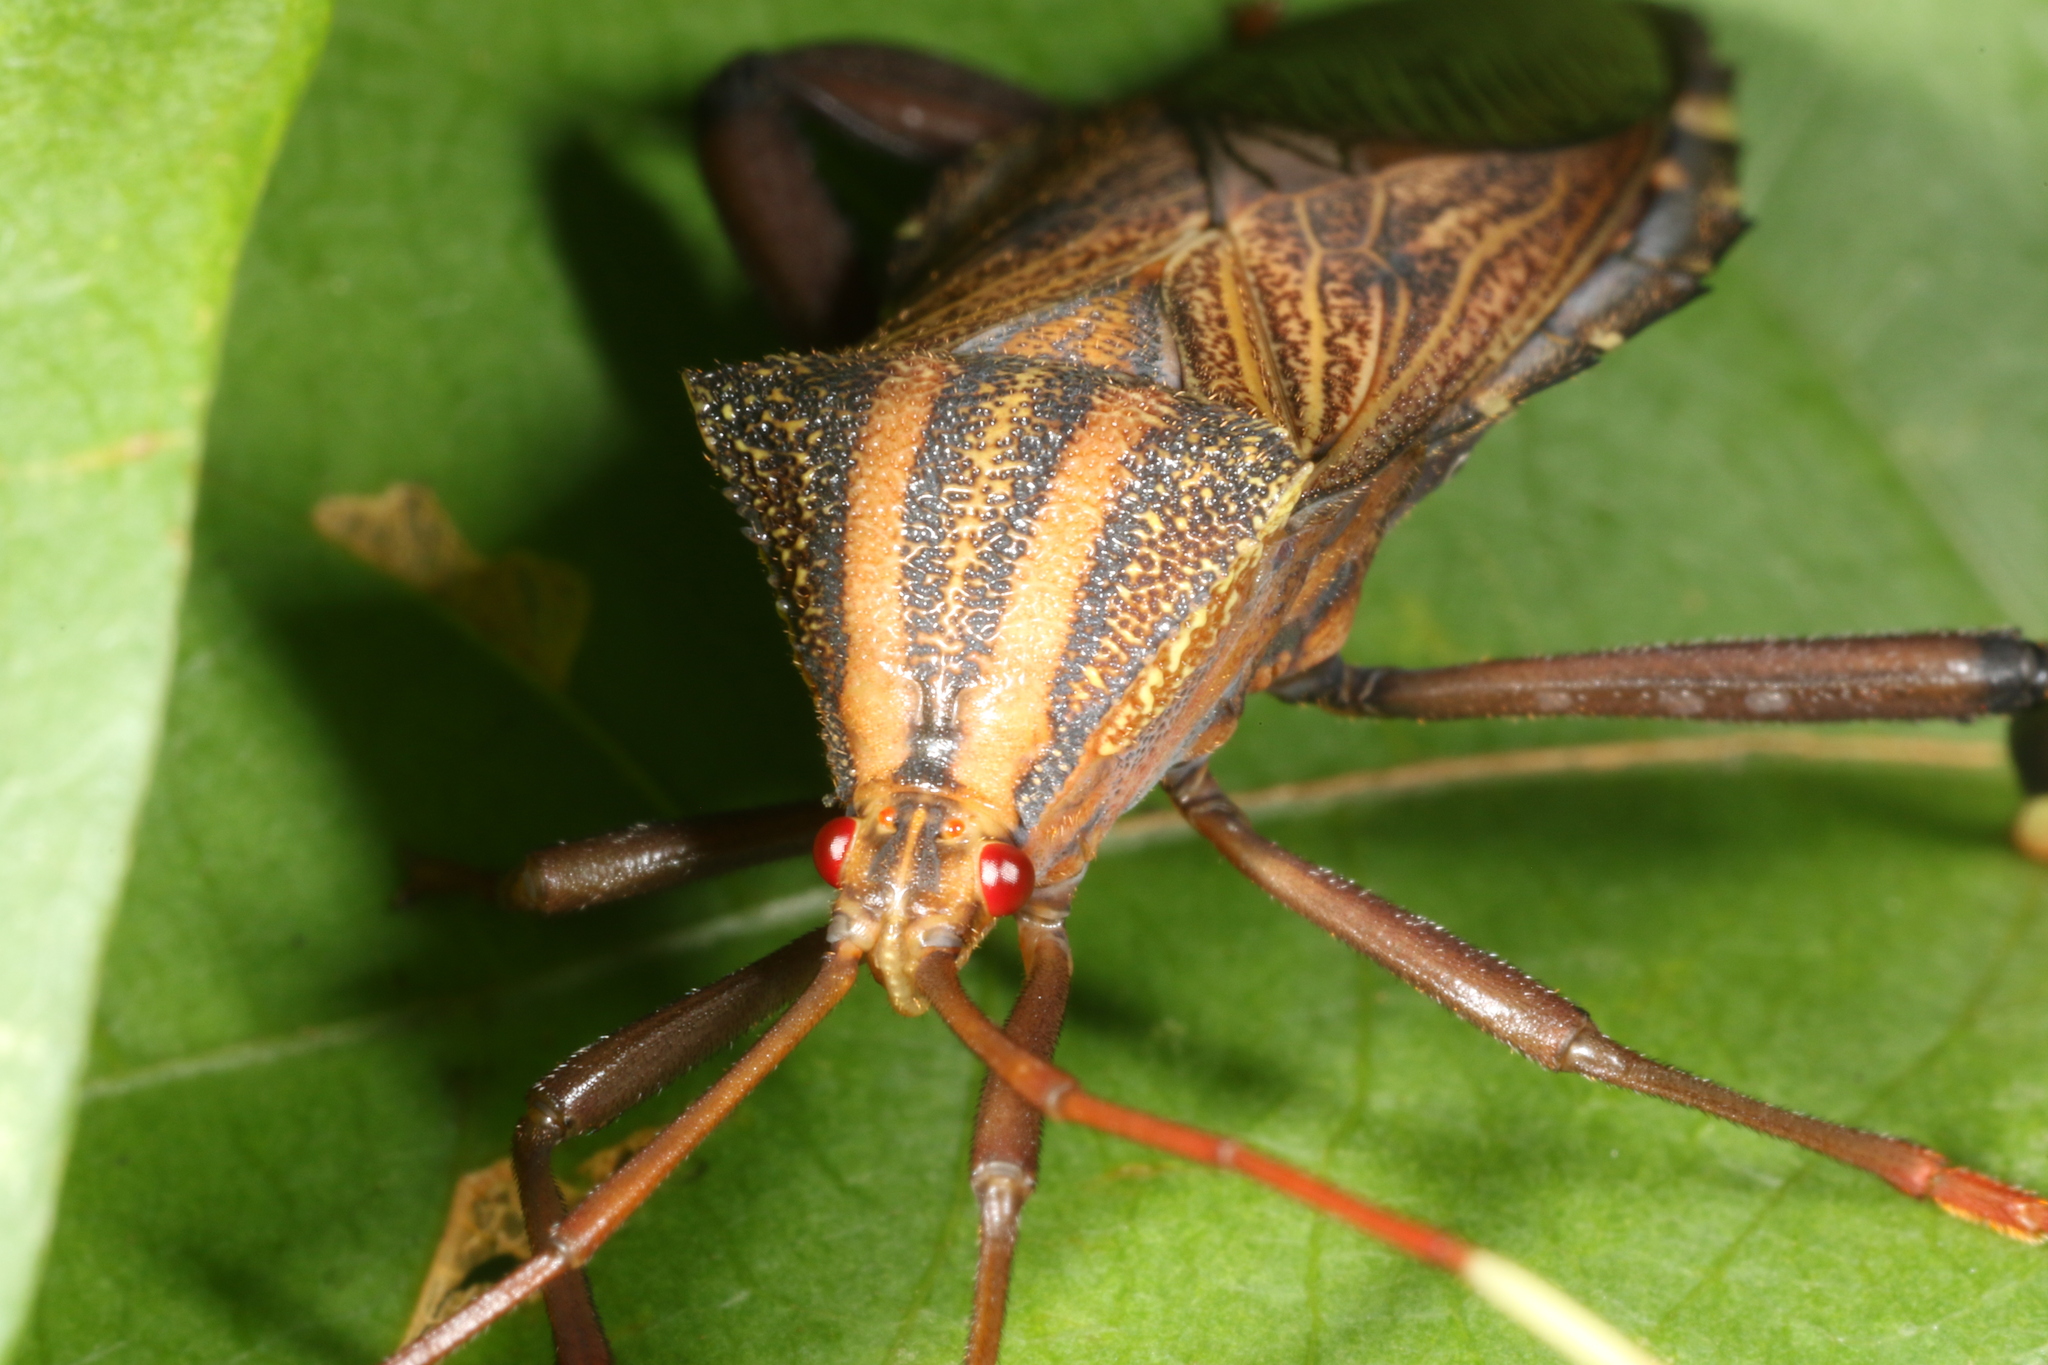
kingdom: Animalia
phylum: Arthropoda
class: Insecta
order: Hemiptera
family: Coreidae
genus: Melucha
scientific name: Melucha phyllocnemis
